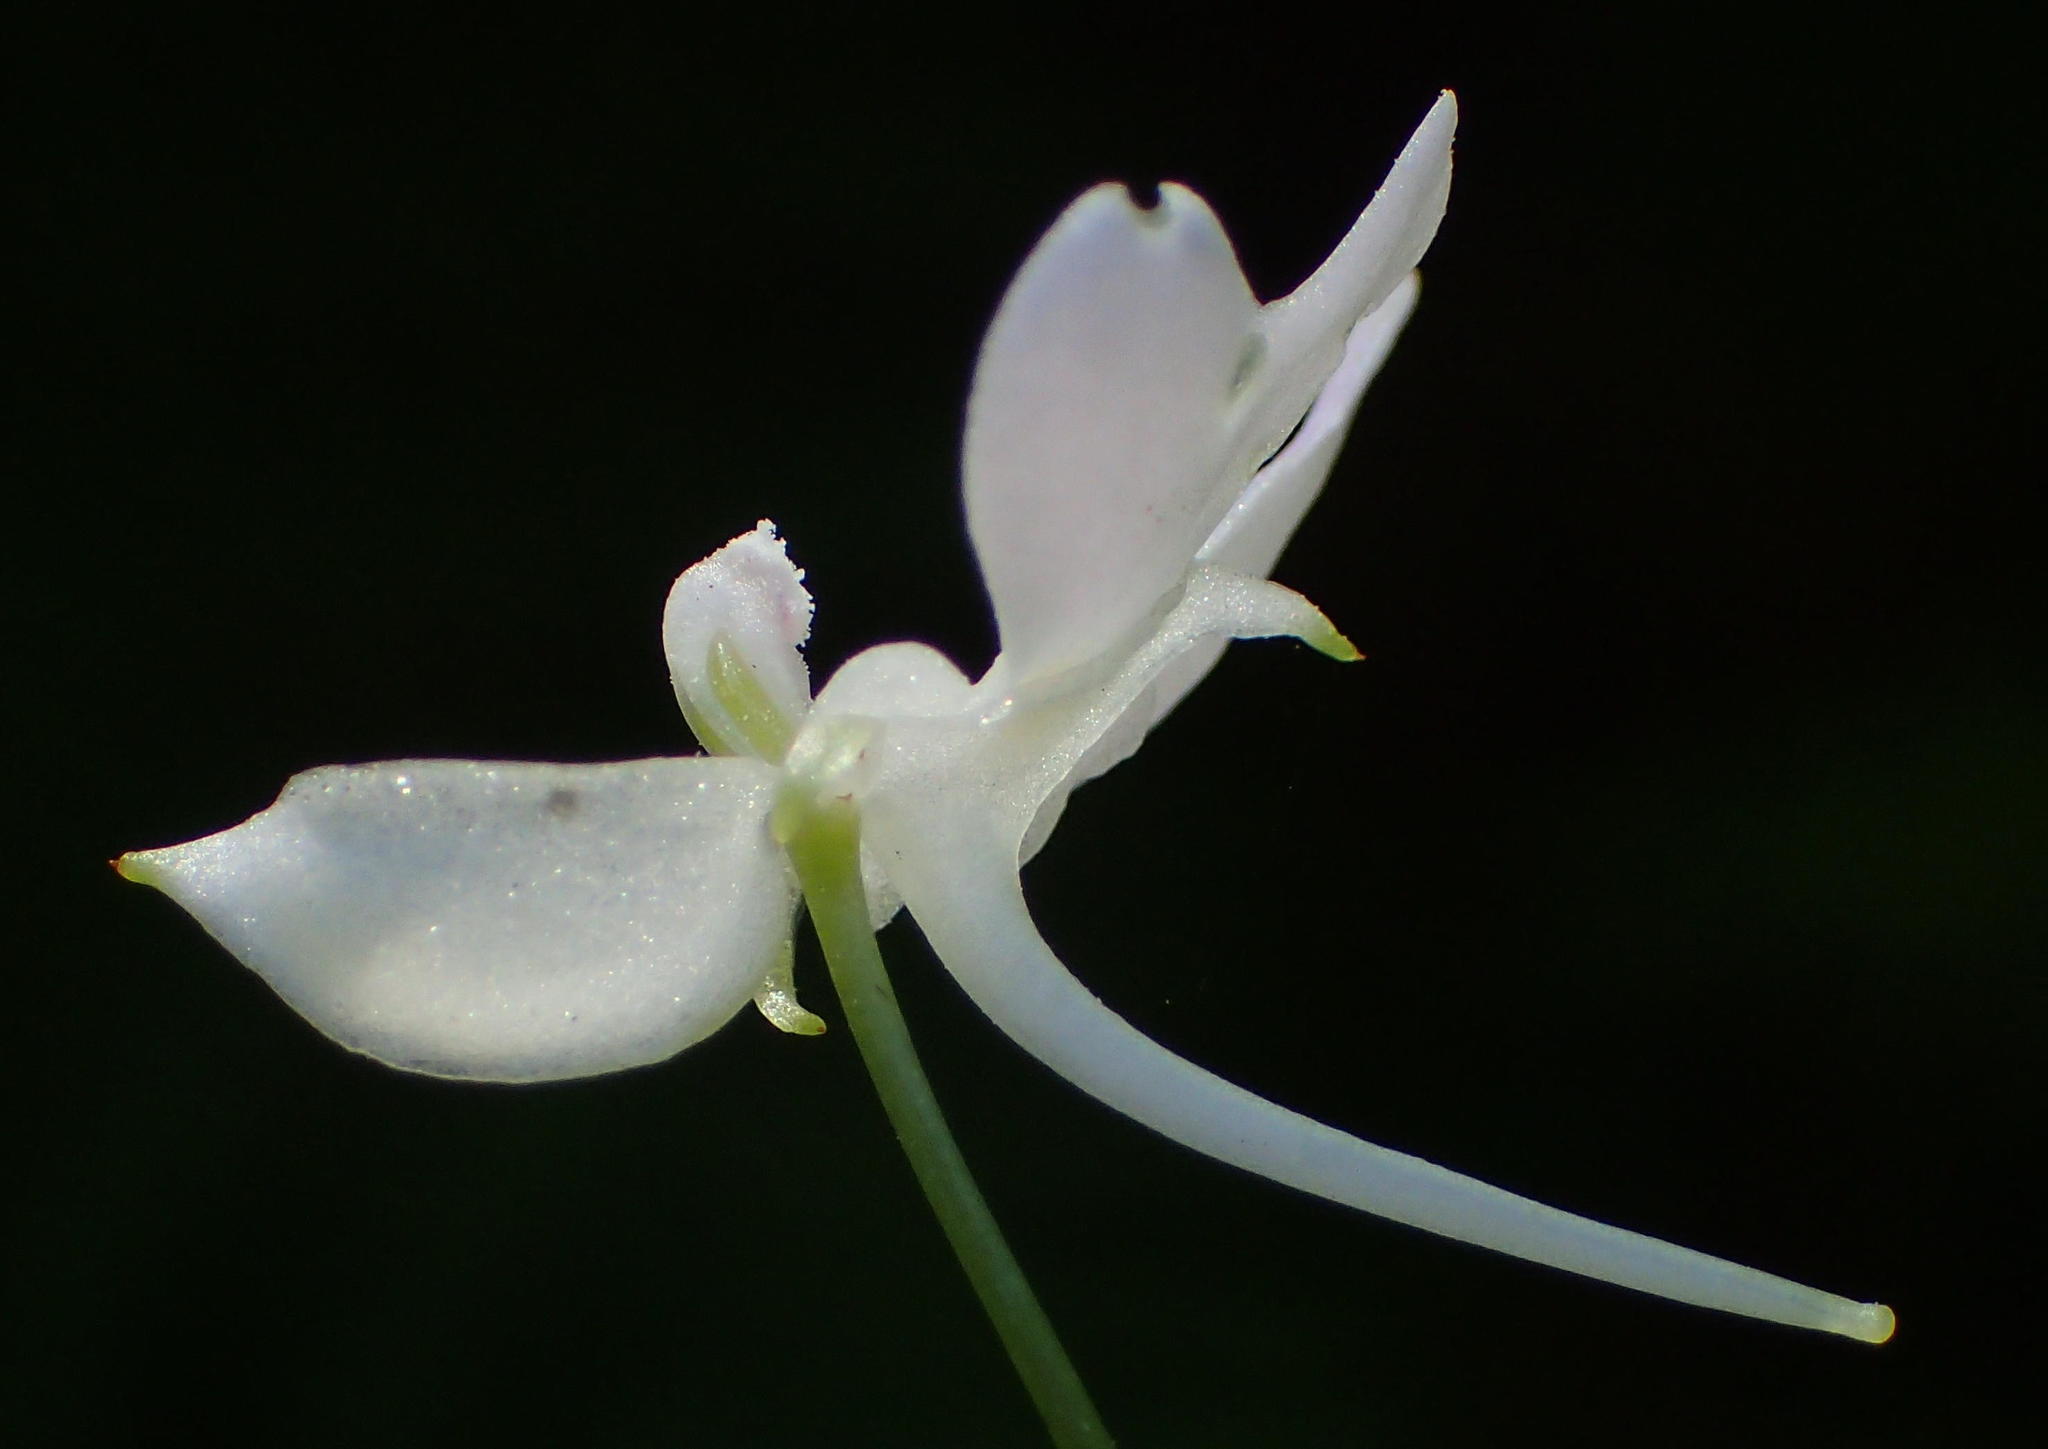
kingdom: Plantae
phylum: Tracheophyta
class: Magnoliopsida
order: Ericales
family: Balsaminaceae
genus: Impatiens
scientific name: Impatiens hochstetteri
